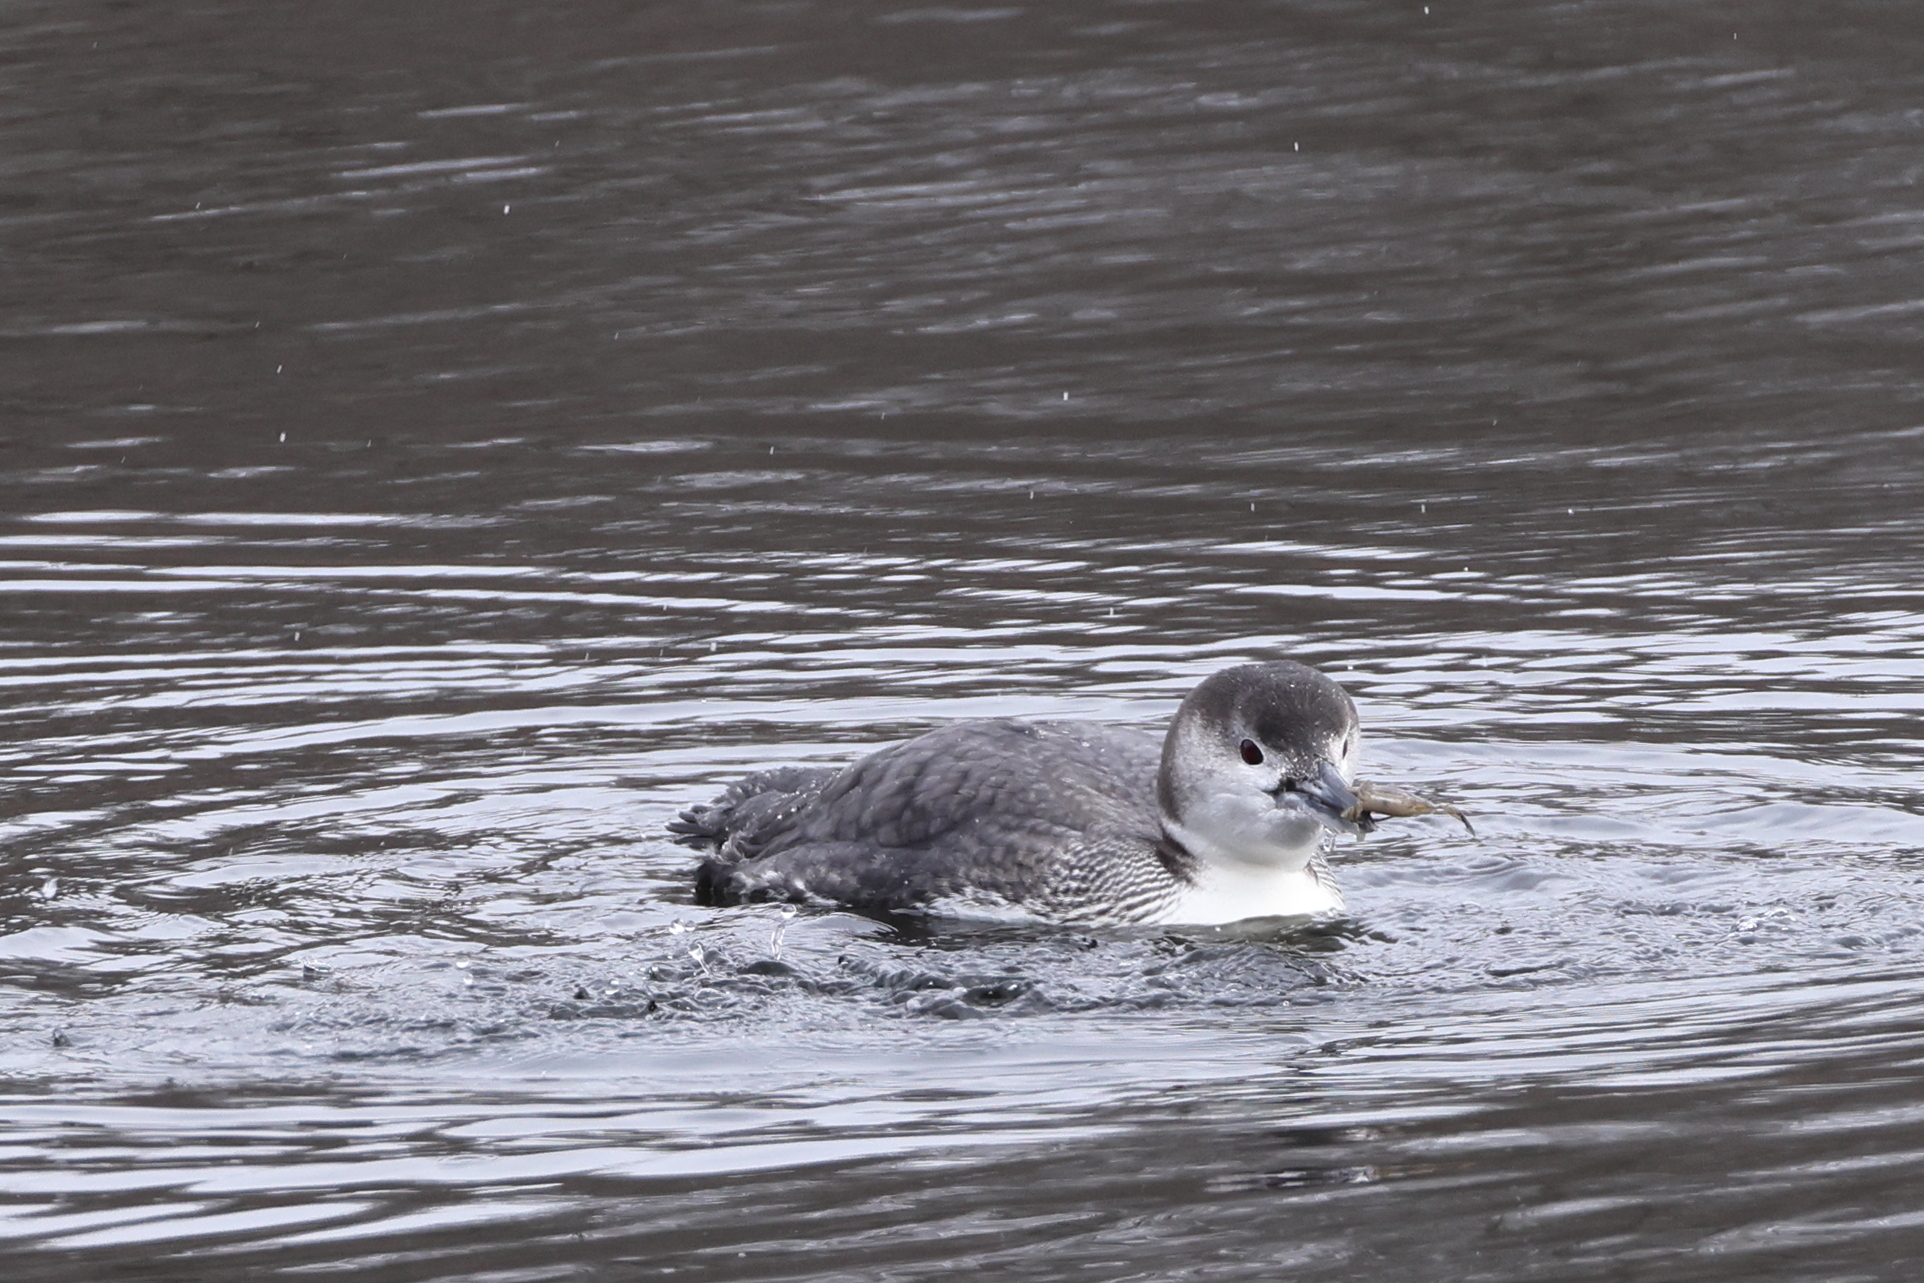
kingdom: Animalia
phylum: Chordata
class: Aves
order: Gaviiformes
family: Gaviidae
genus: Gavia
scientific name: Gavia immer
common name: Common loon
